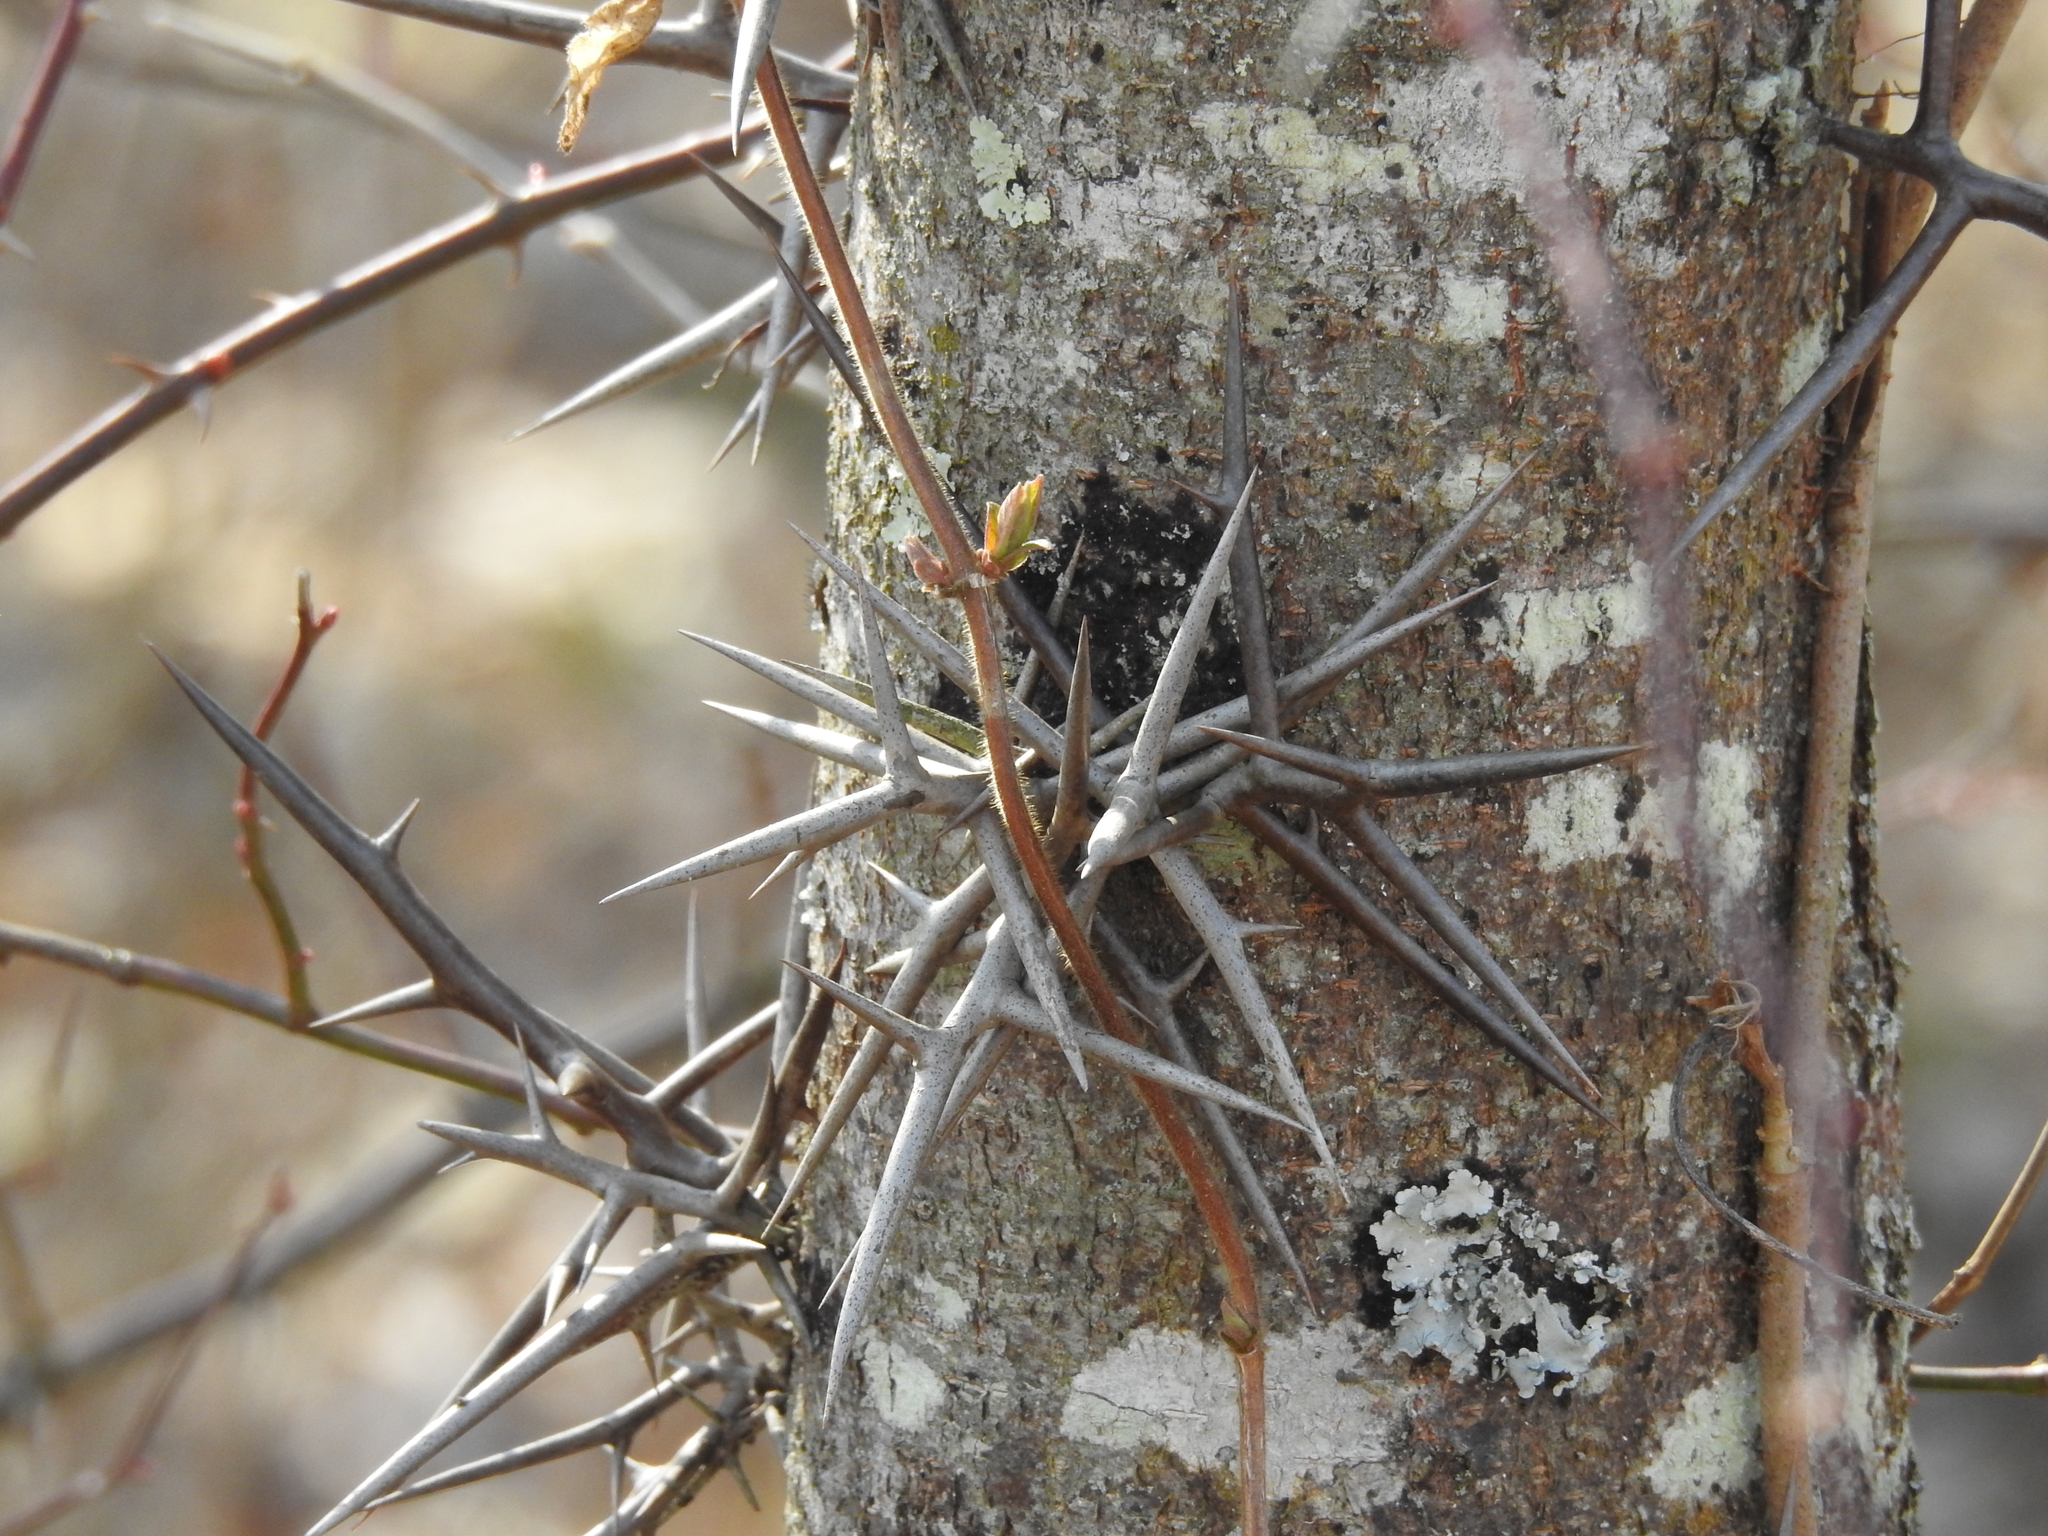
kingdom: Plantae
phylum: Tracheophyta
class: Magnoliopsida
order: Fabales
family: Fabaceae
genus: Gleditsia
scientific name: Gleditsia triacanthos
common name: Common honeylocust
